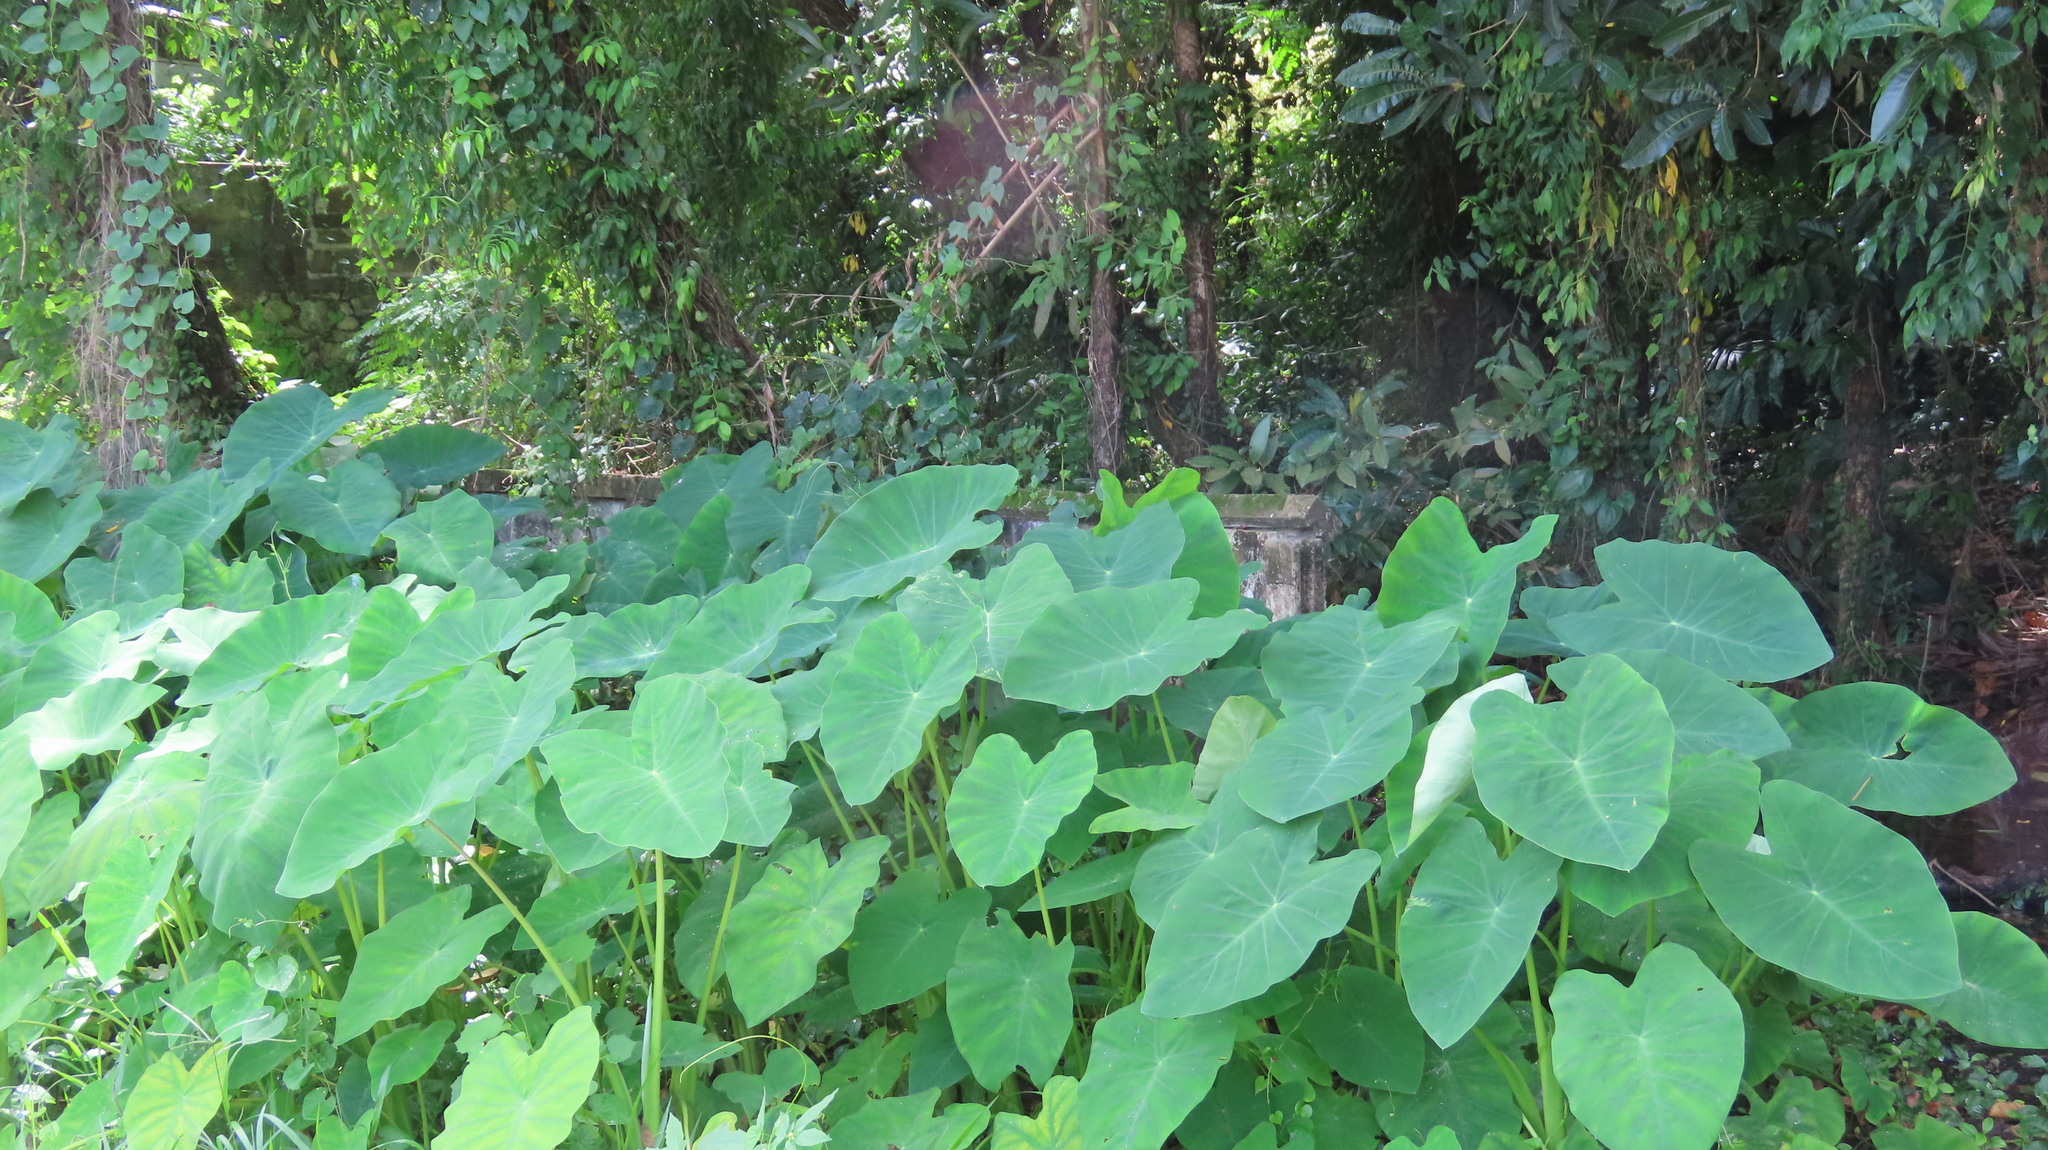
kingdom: Plantae
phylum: Tracheophyta
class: Liliopsida
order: Alismatales
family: Araceae
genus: Colocasia
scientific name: Colocasia esculenta
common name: Taro
